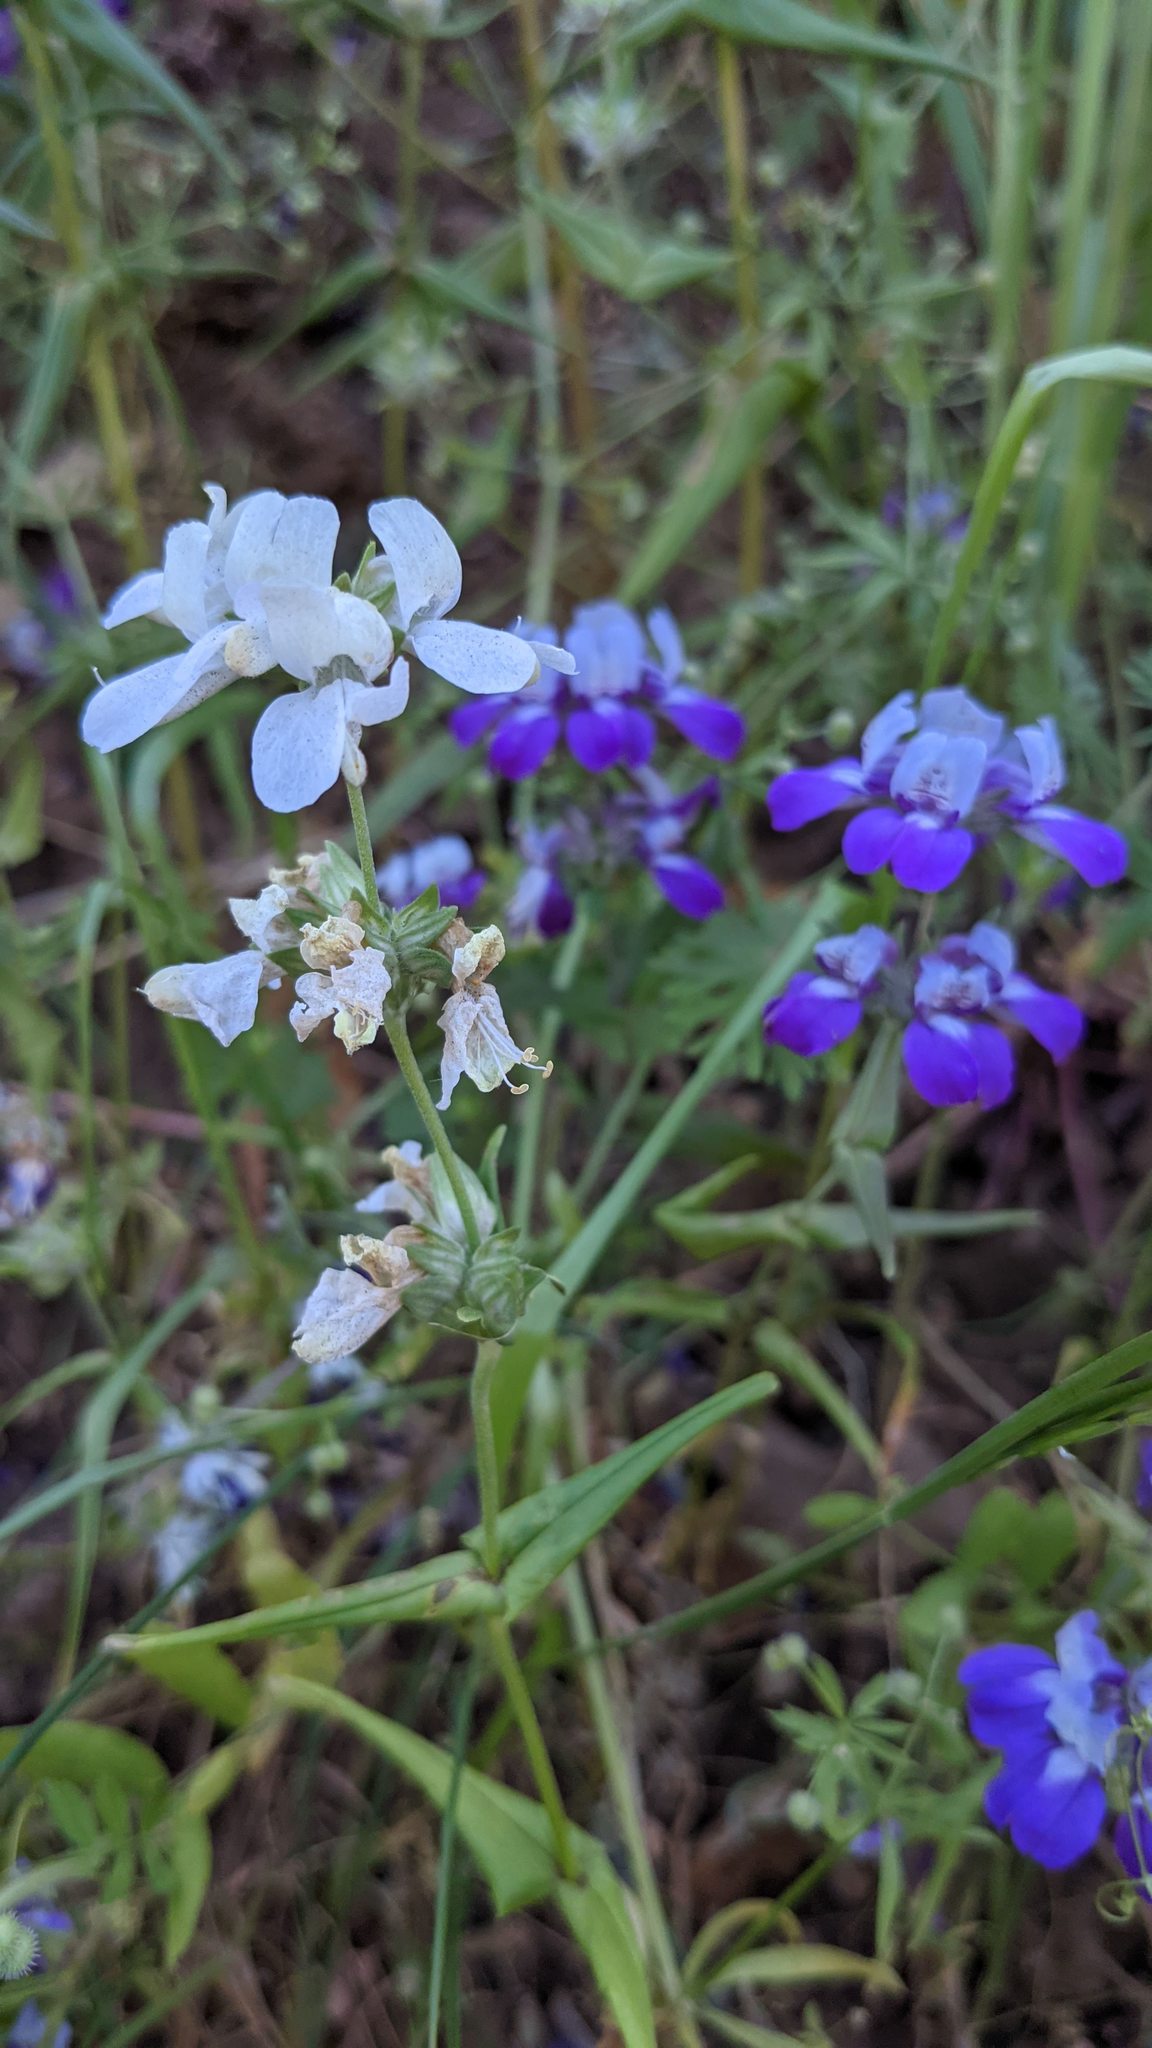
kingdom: Plantae
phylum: Tracheophyta
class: Magnoliopsida
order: Lamiales
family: Plantaginaceae
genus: Collinsia
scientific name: Collinsia heterophylla
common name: Chinese-houses
